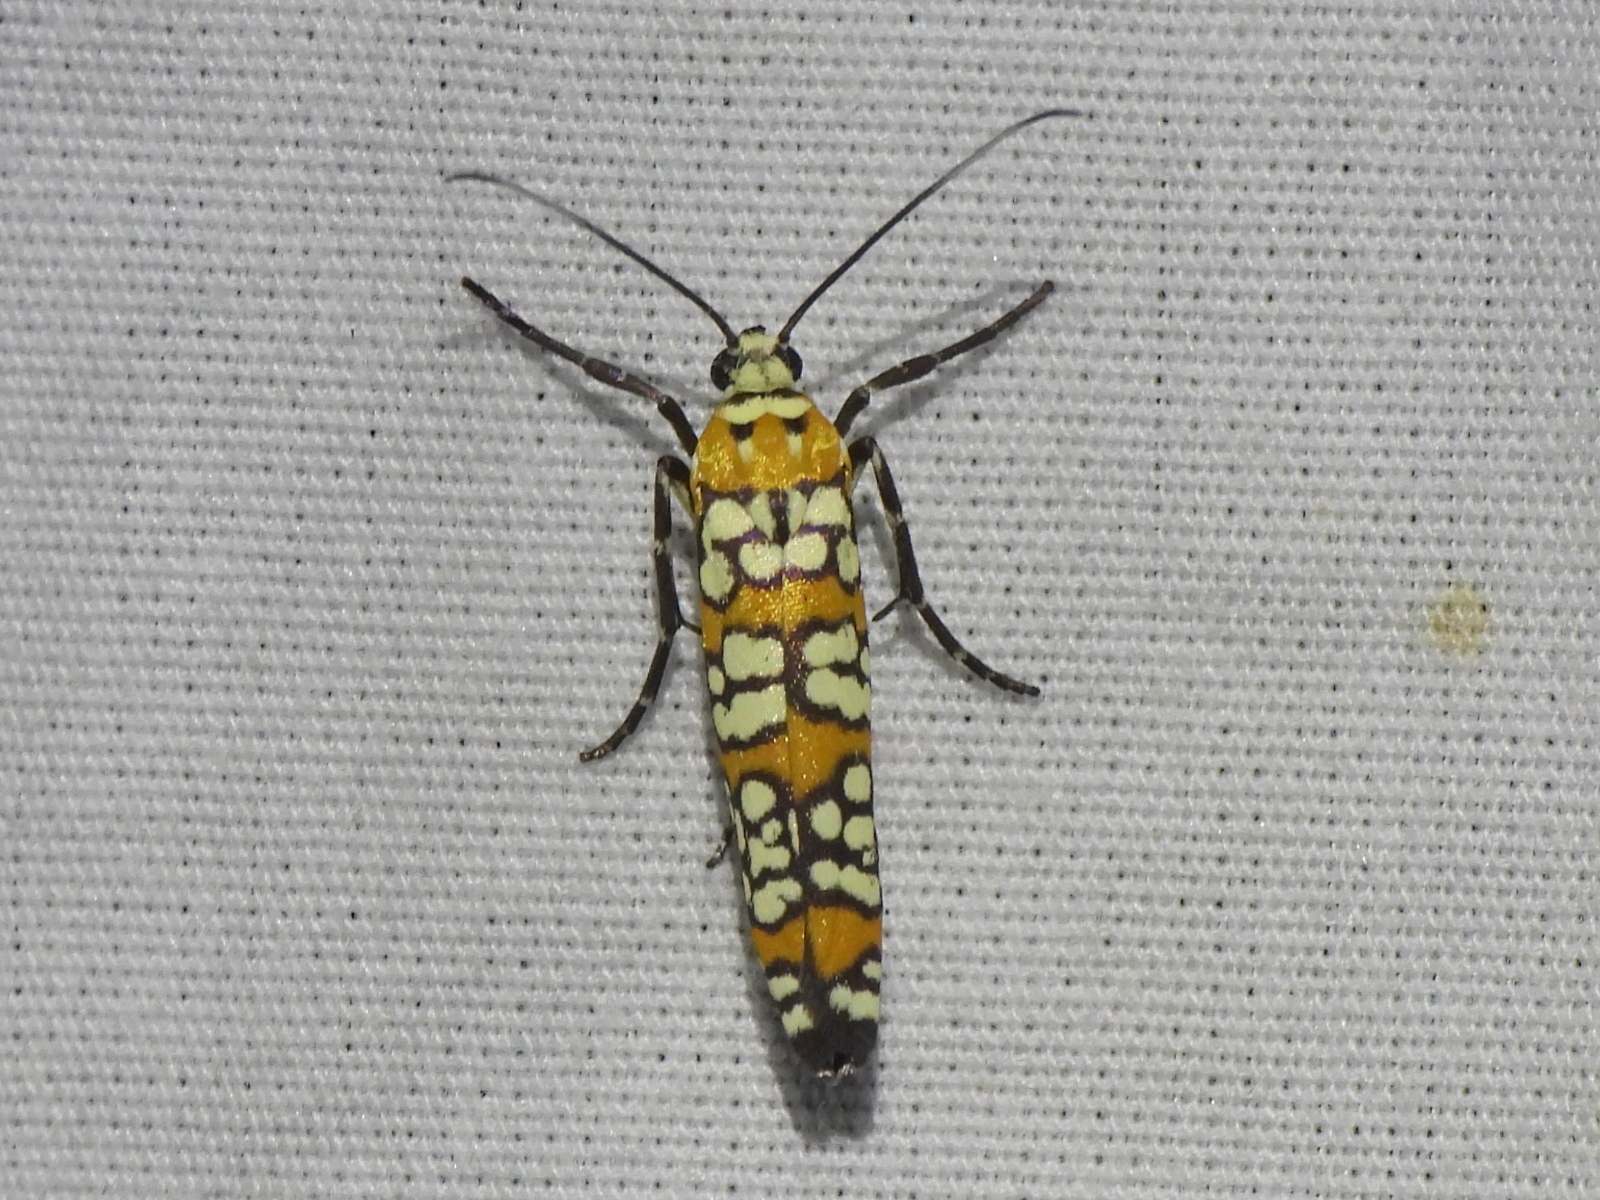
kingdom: Animalia
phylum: Arthropoda
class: Insecta
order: Lepidoptera
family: Attevidae
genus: Atteva
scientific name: Atteva punctella
